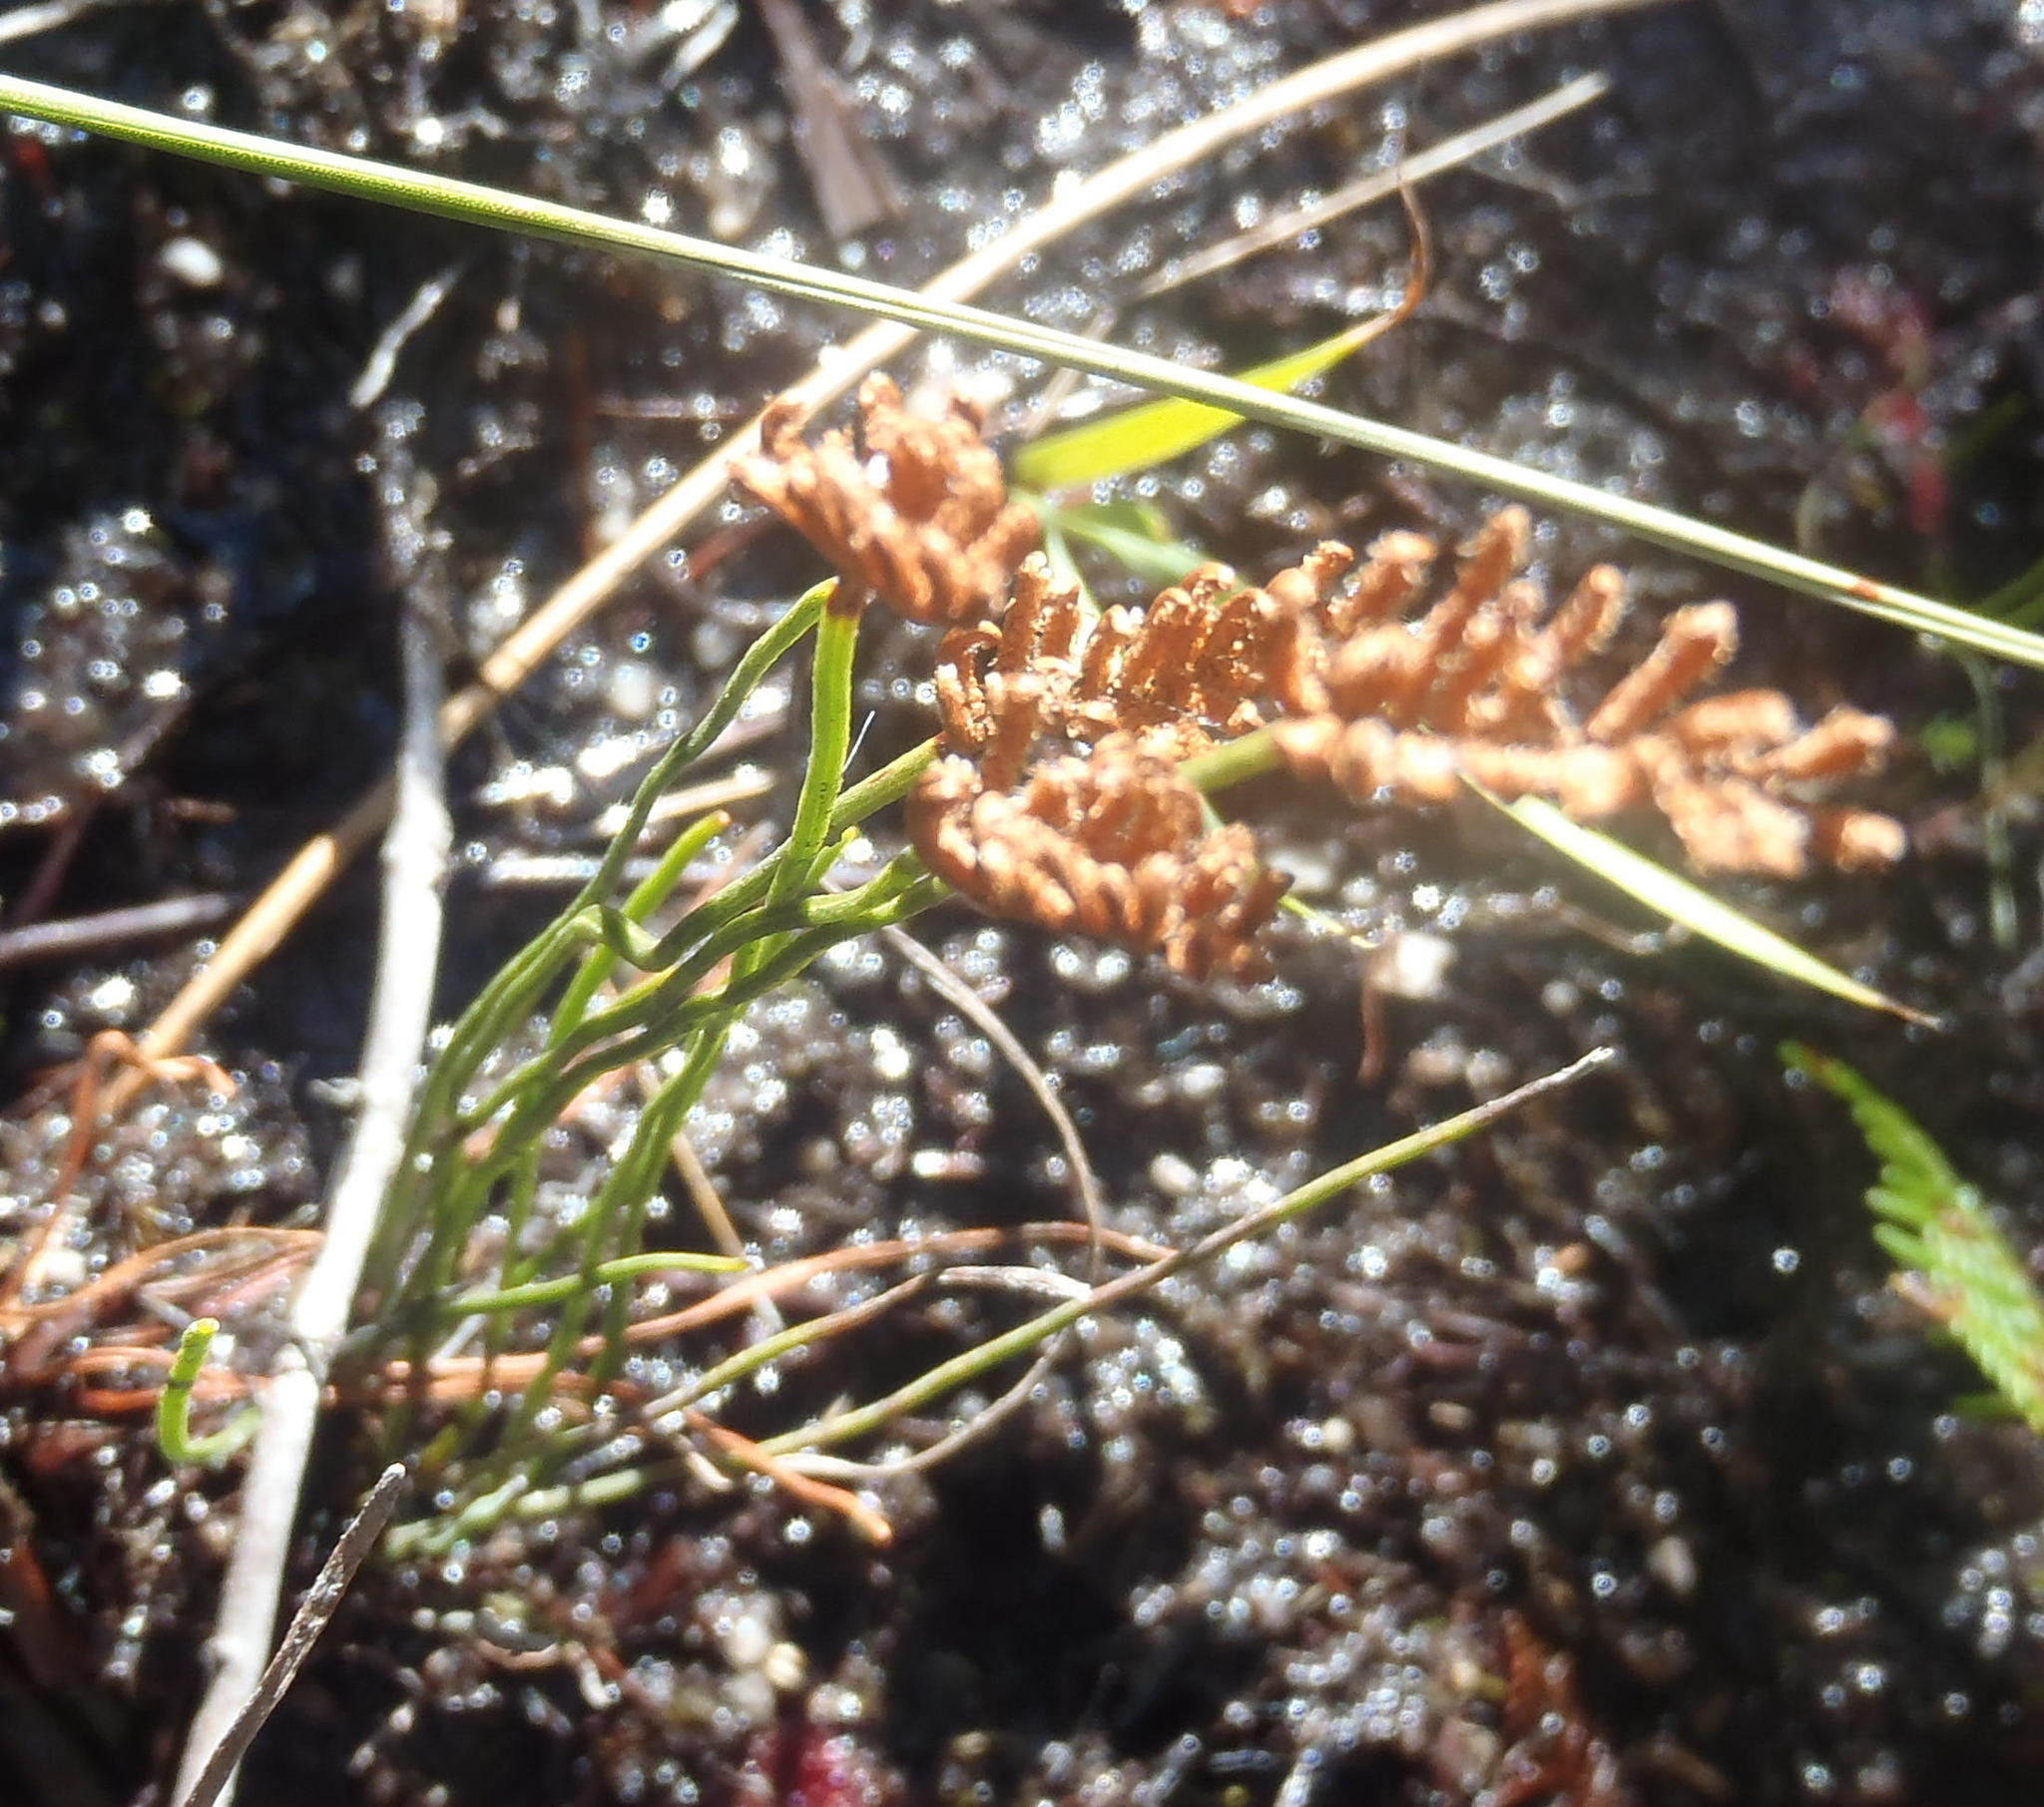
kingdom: Plantae
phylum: Tracheophyta
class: Polypodiopsida
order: Schizaeales
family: Schizaeaceae
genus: Schizaea
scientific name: Schizaea pectinata
